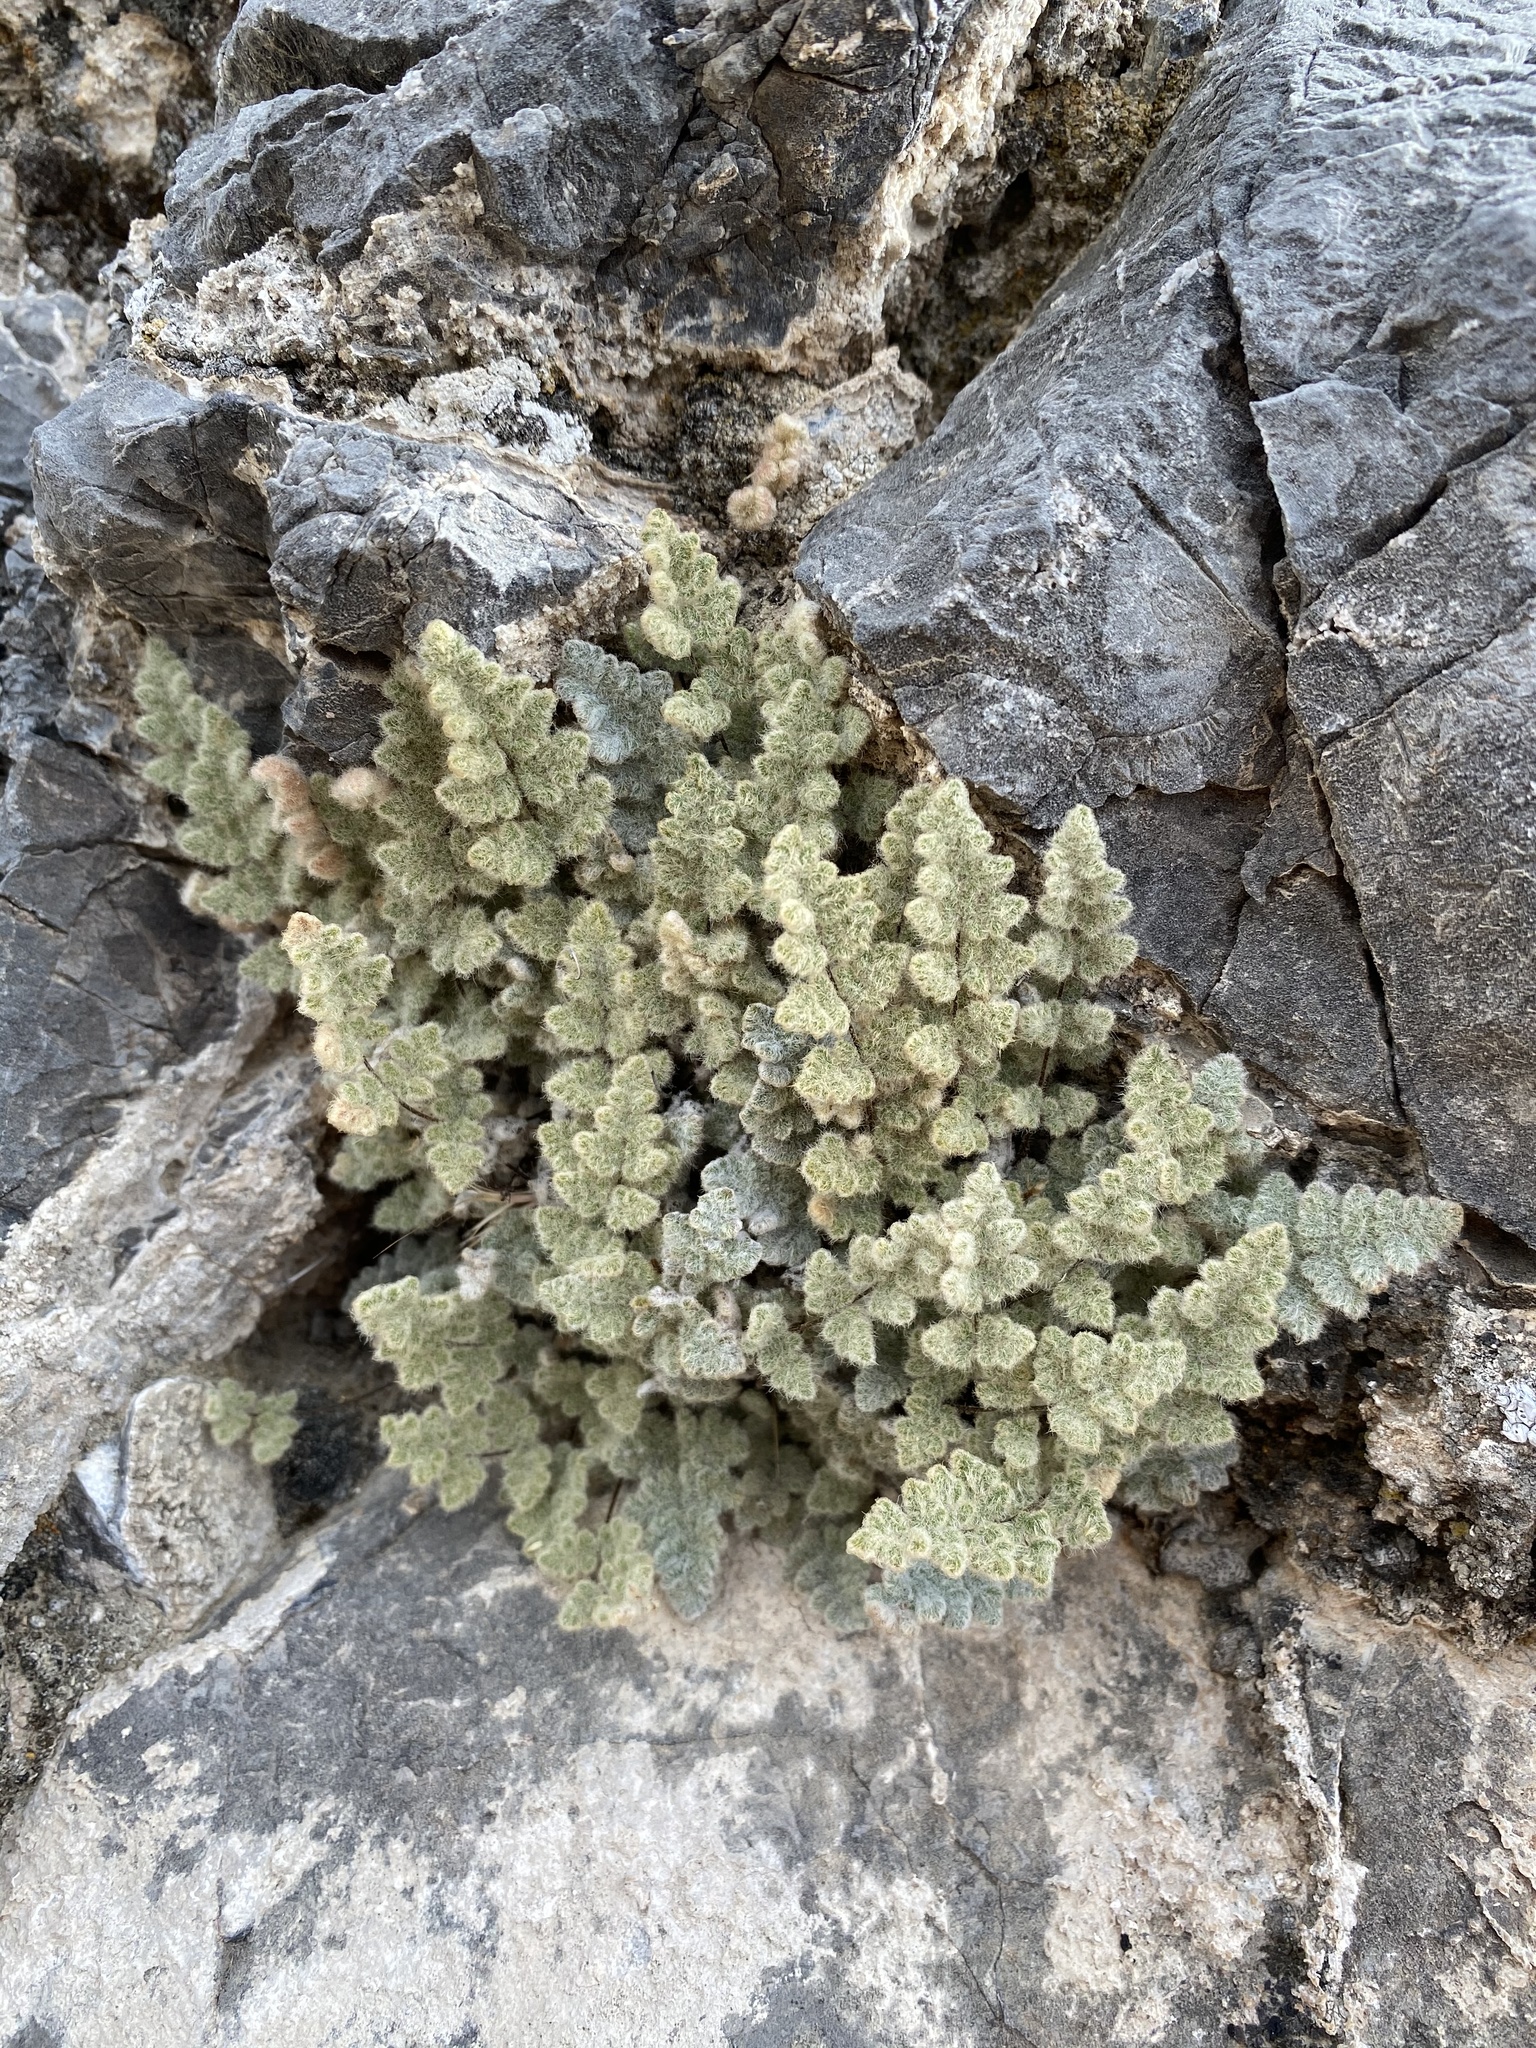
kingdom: Plantae
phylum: Tracheophyta
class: Polypodiopsida
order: Polypodiales
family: Pteridaceae
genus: Myriopteris
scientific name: Myriopteris parryi
